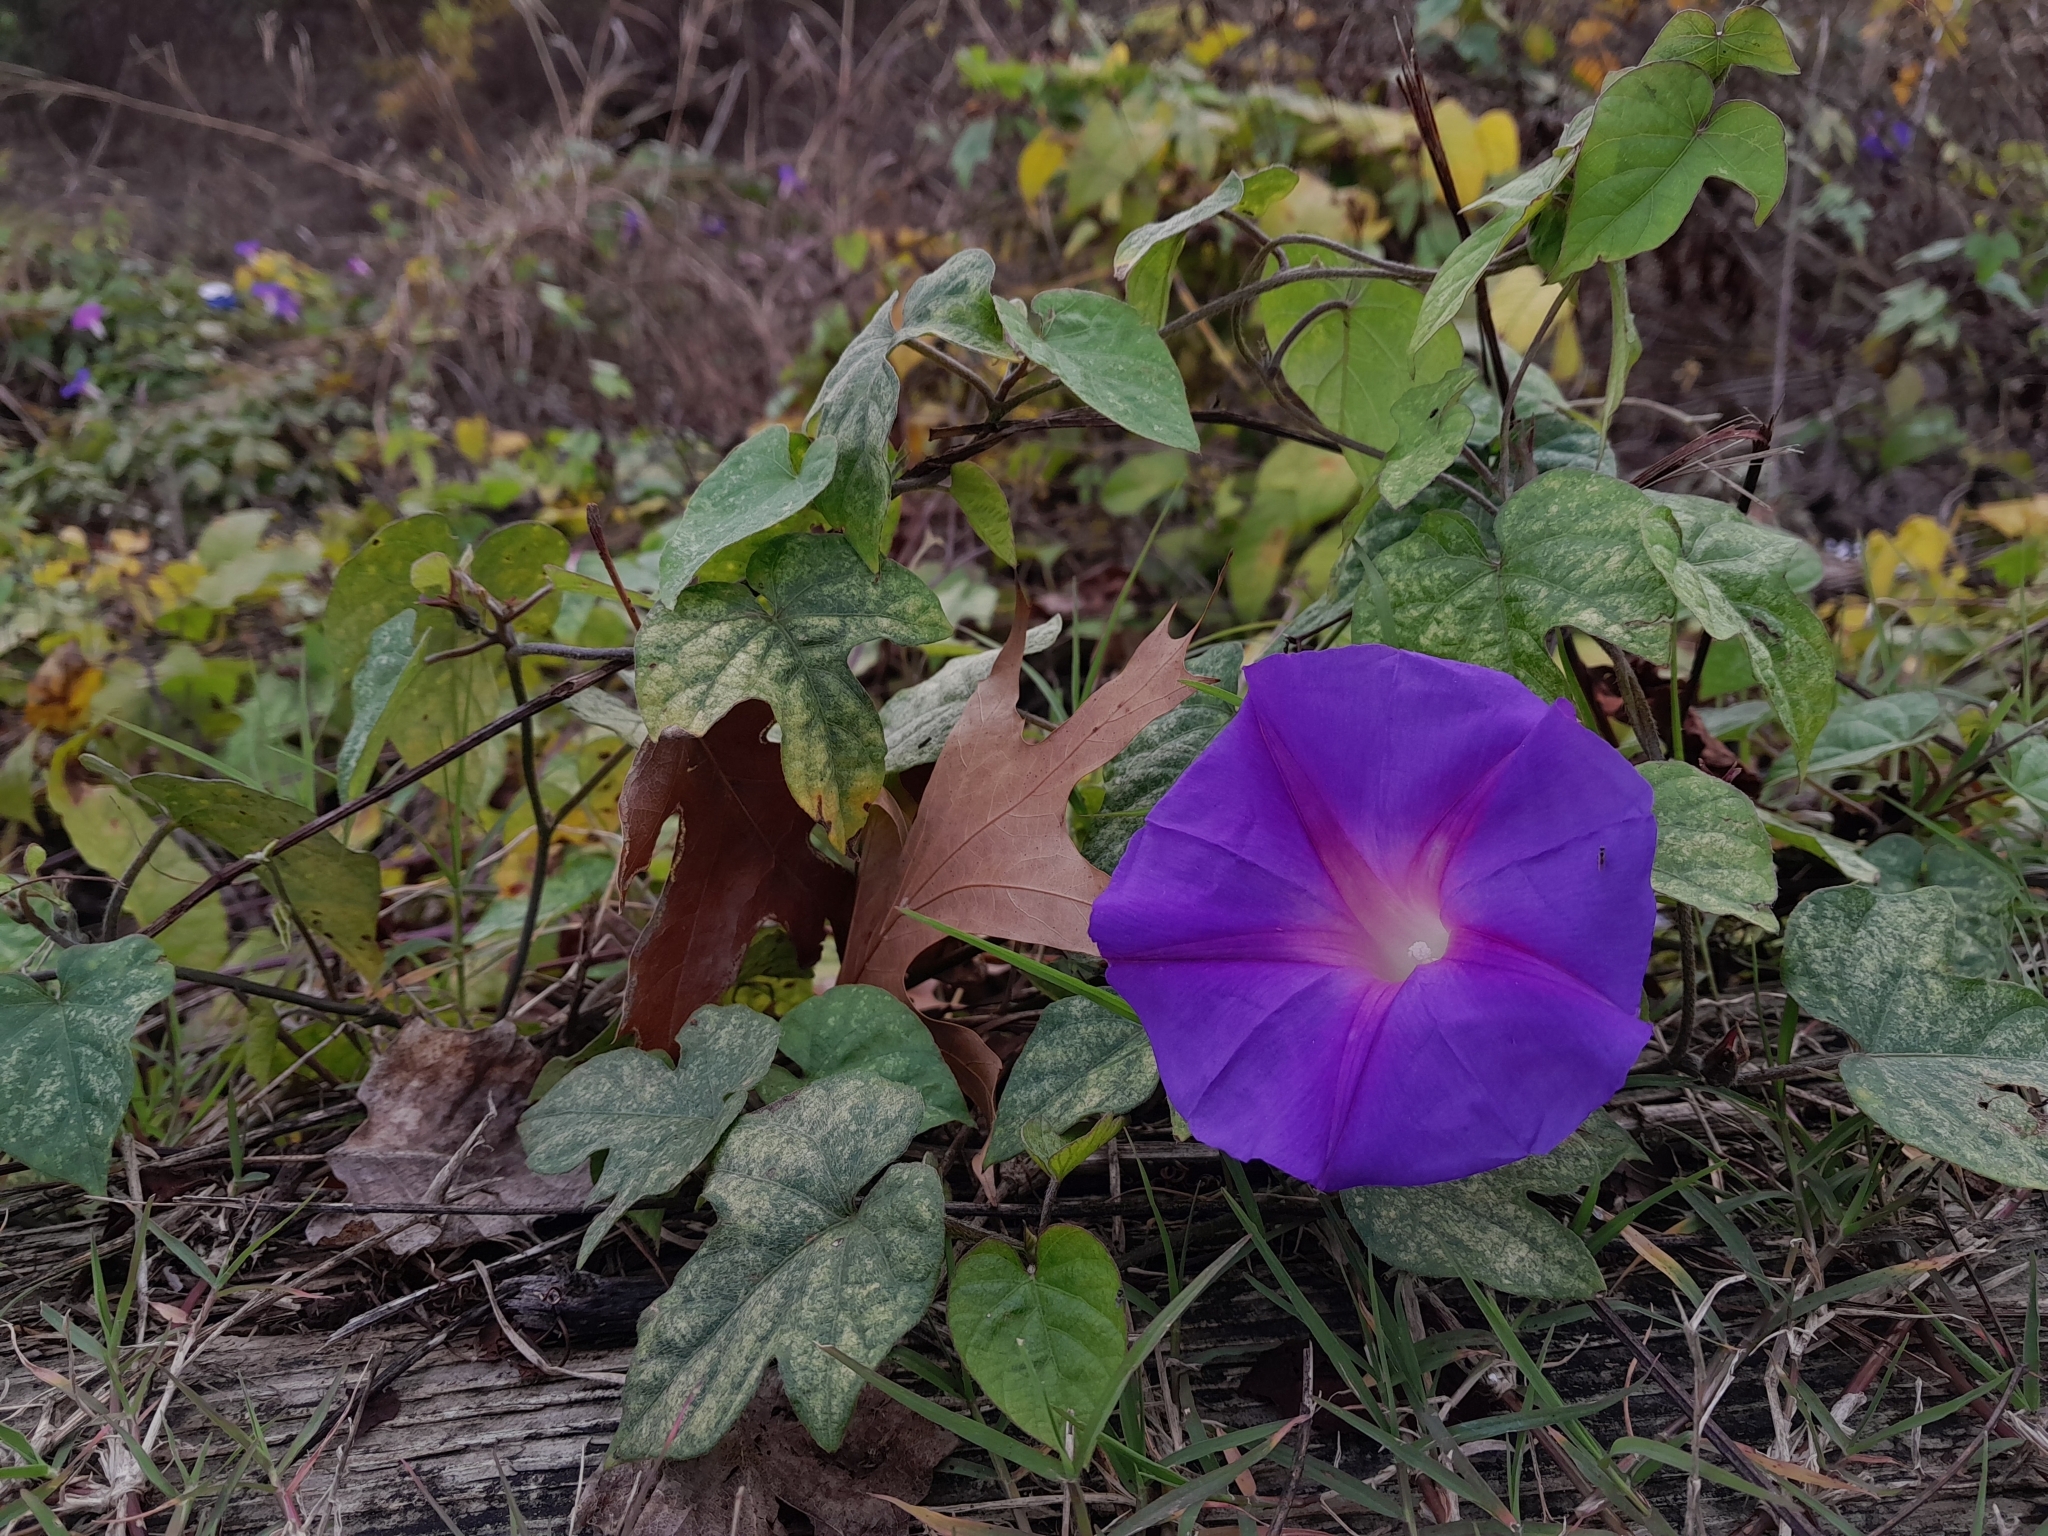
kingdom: Plantae
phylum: Tracheophyta
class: Magnoliopsida
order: Solanales
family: Convolvulaceae
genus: Ipomoea
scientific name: Ipomoea indica
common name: Blue dawnflower
